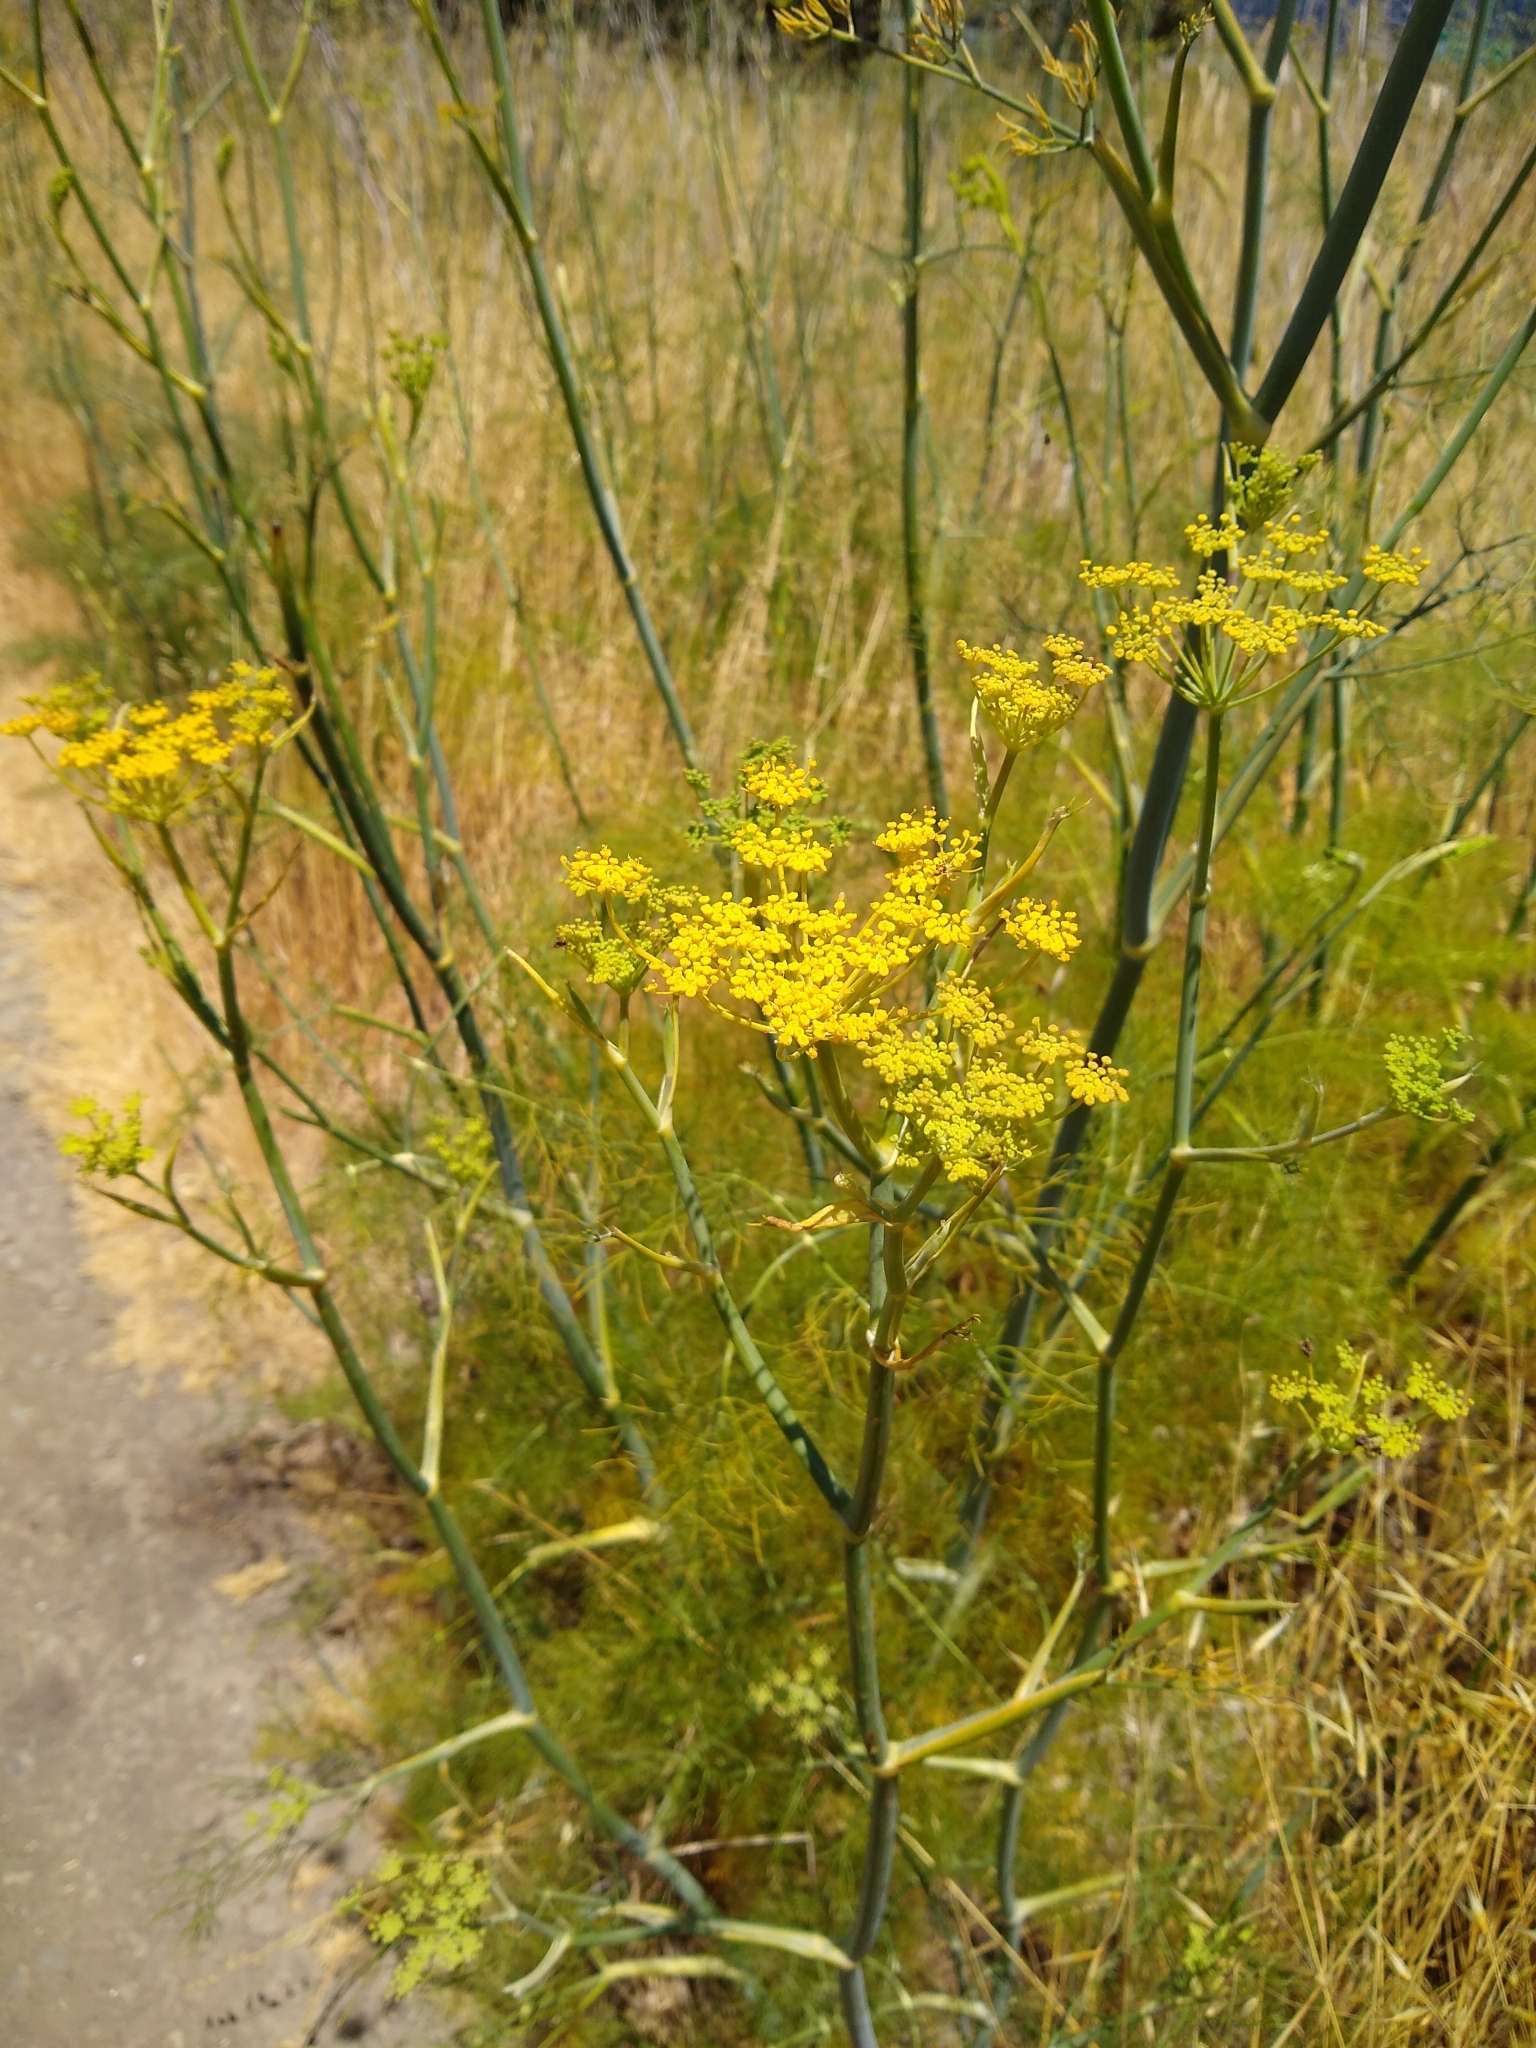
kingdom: Plantae
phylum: Tracheophyta
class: Magnoliopsida
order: Apiales
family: Apiaceae
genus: Foeniculum
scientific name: Foeniculum vulgare
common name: Fennel
